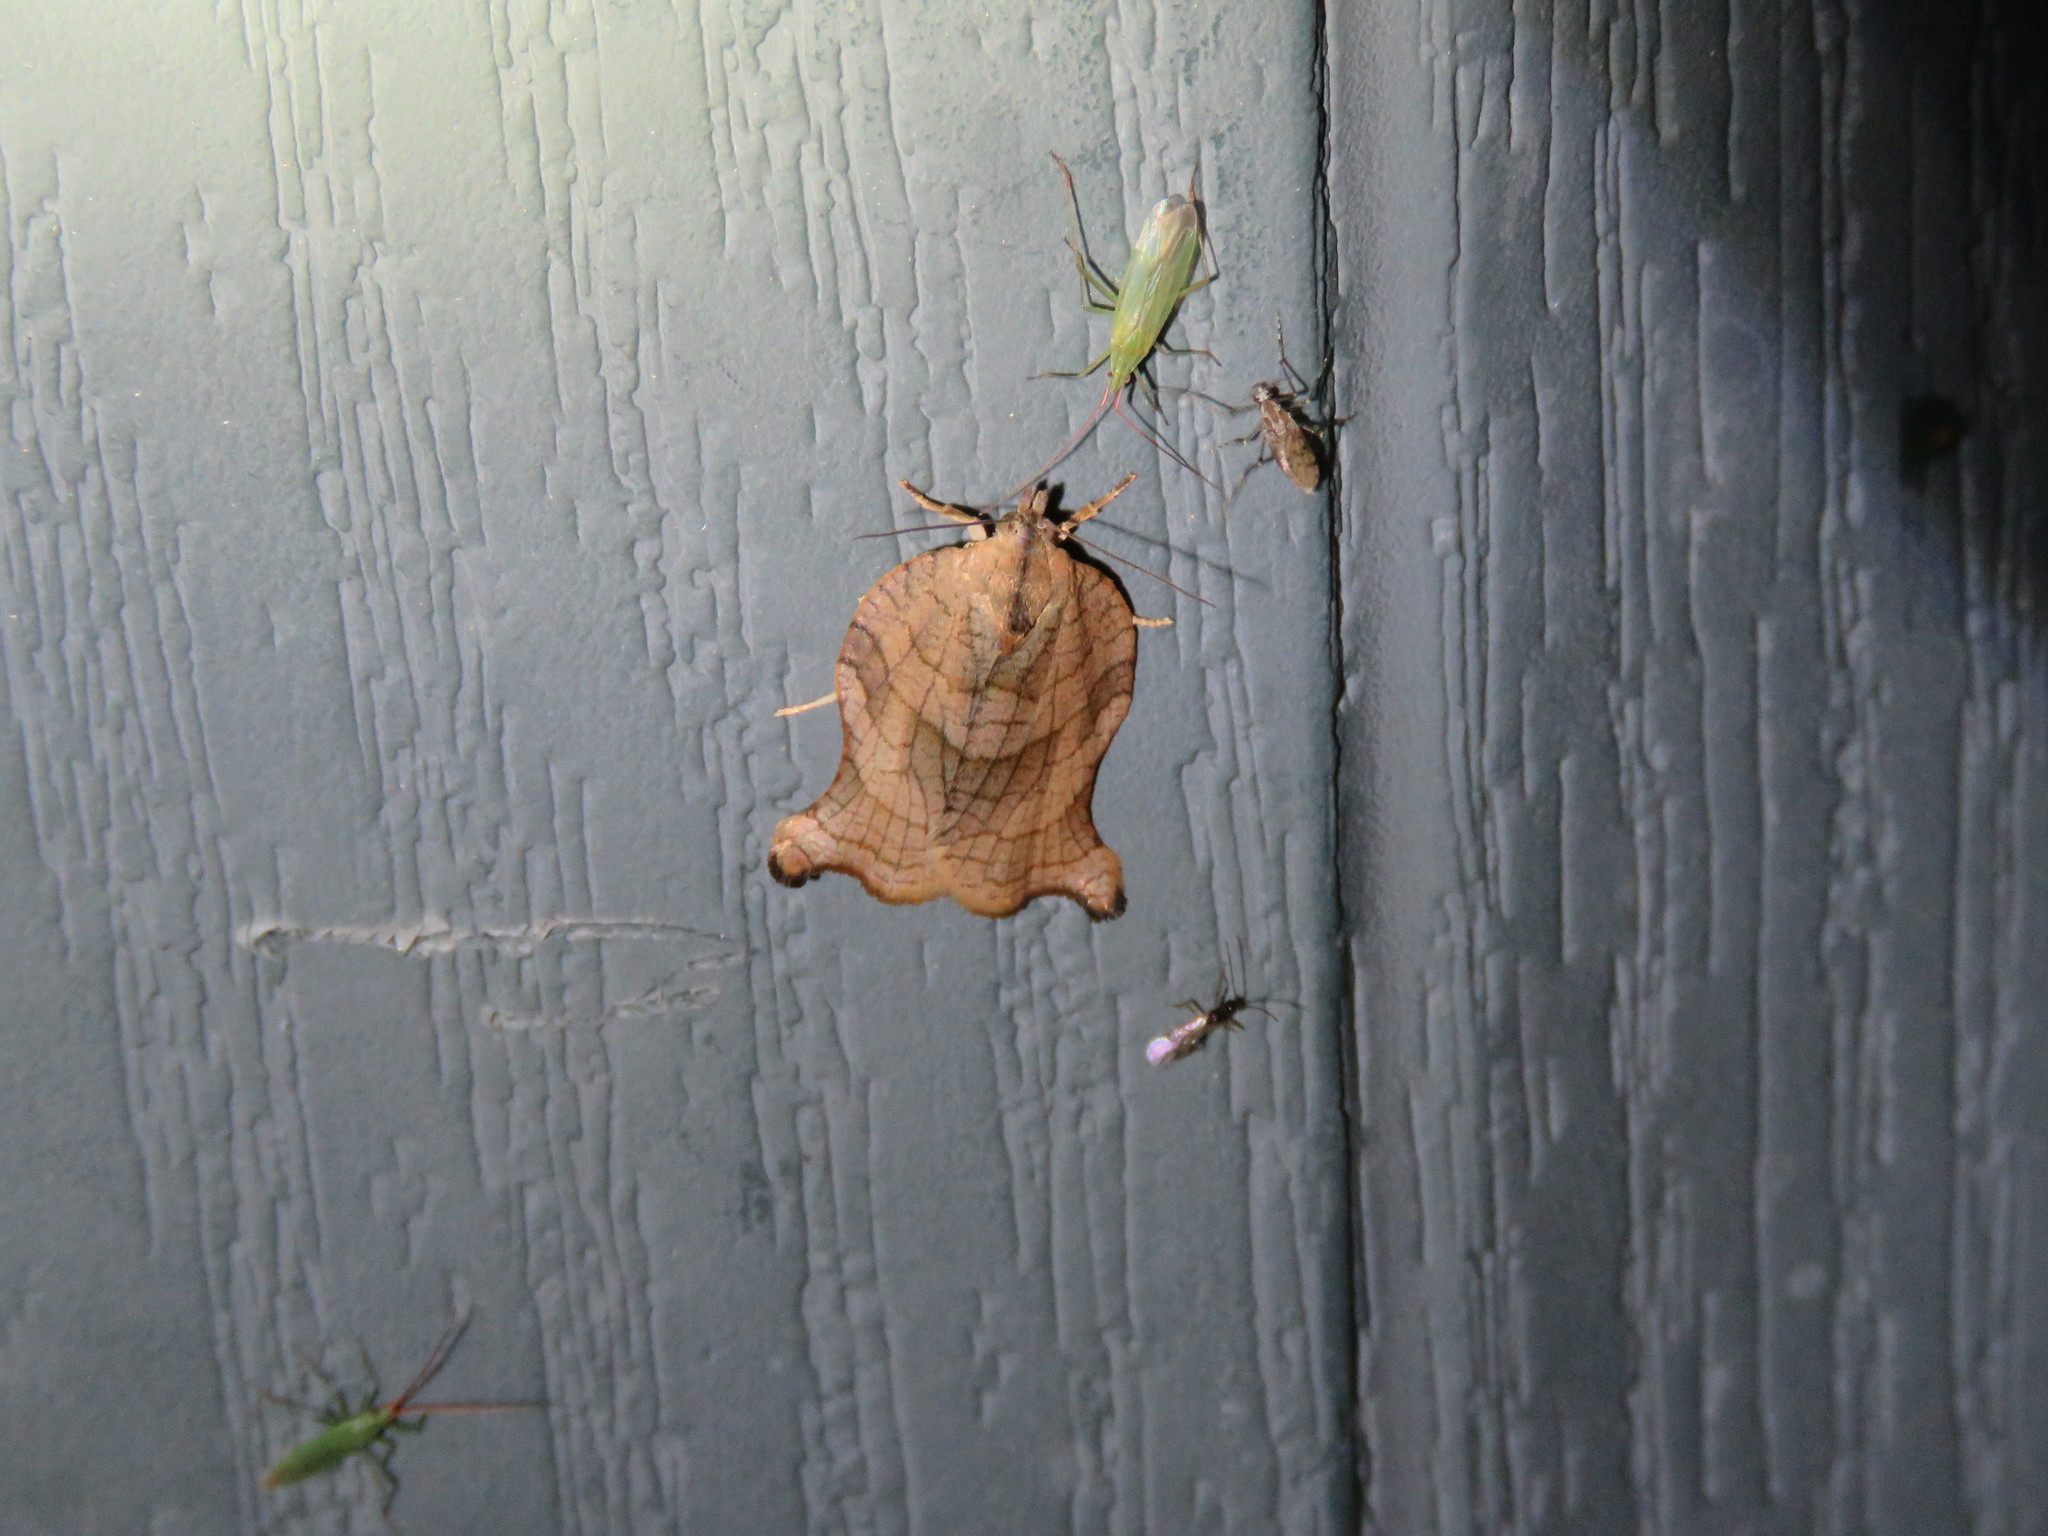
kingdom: Animalia
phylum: Arthropoda
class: Insecta
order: Lepidoptera
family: Tortricidae
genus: Archips
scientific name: Archips purpurana
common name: Omnivorous leafroller
